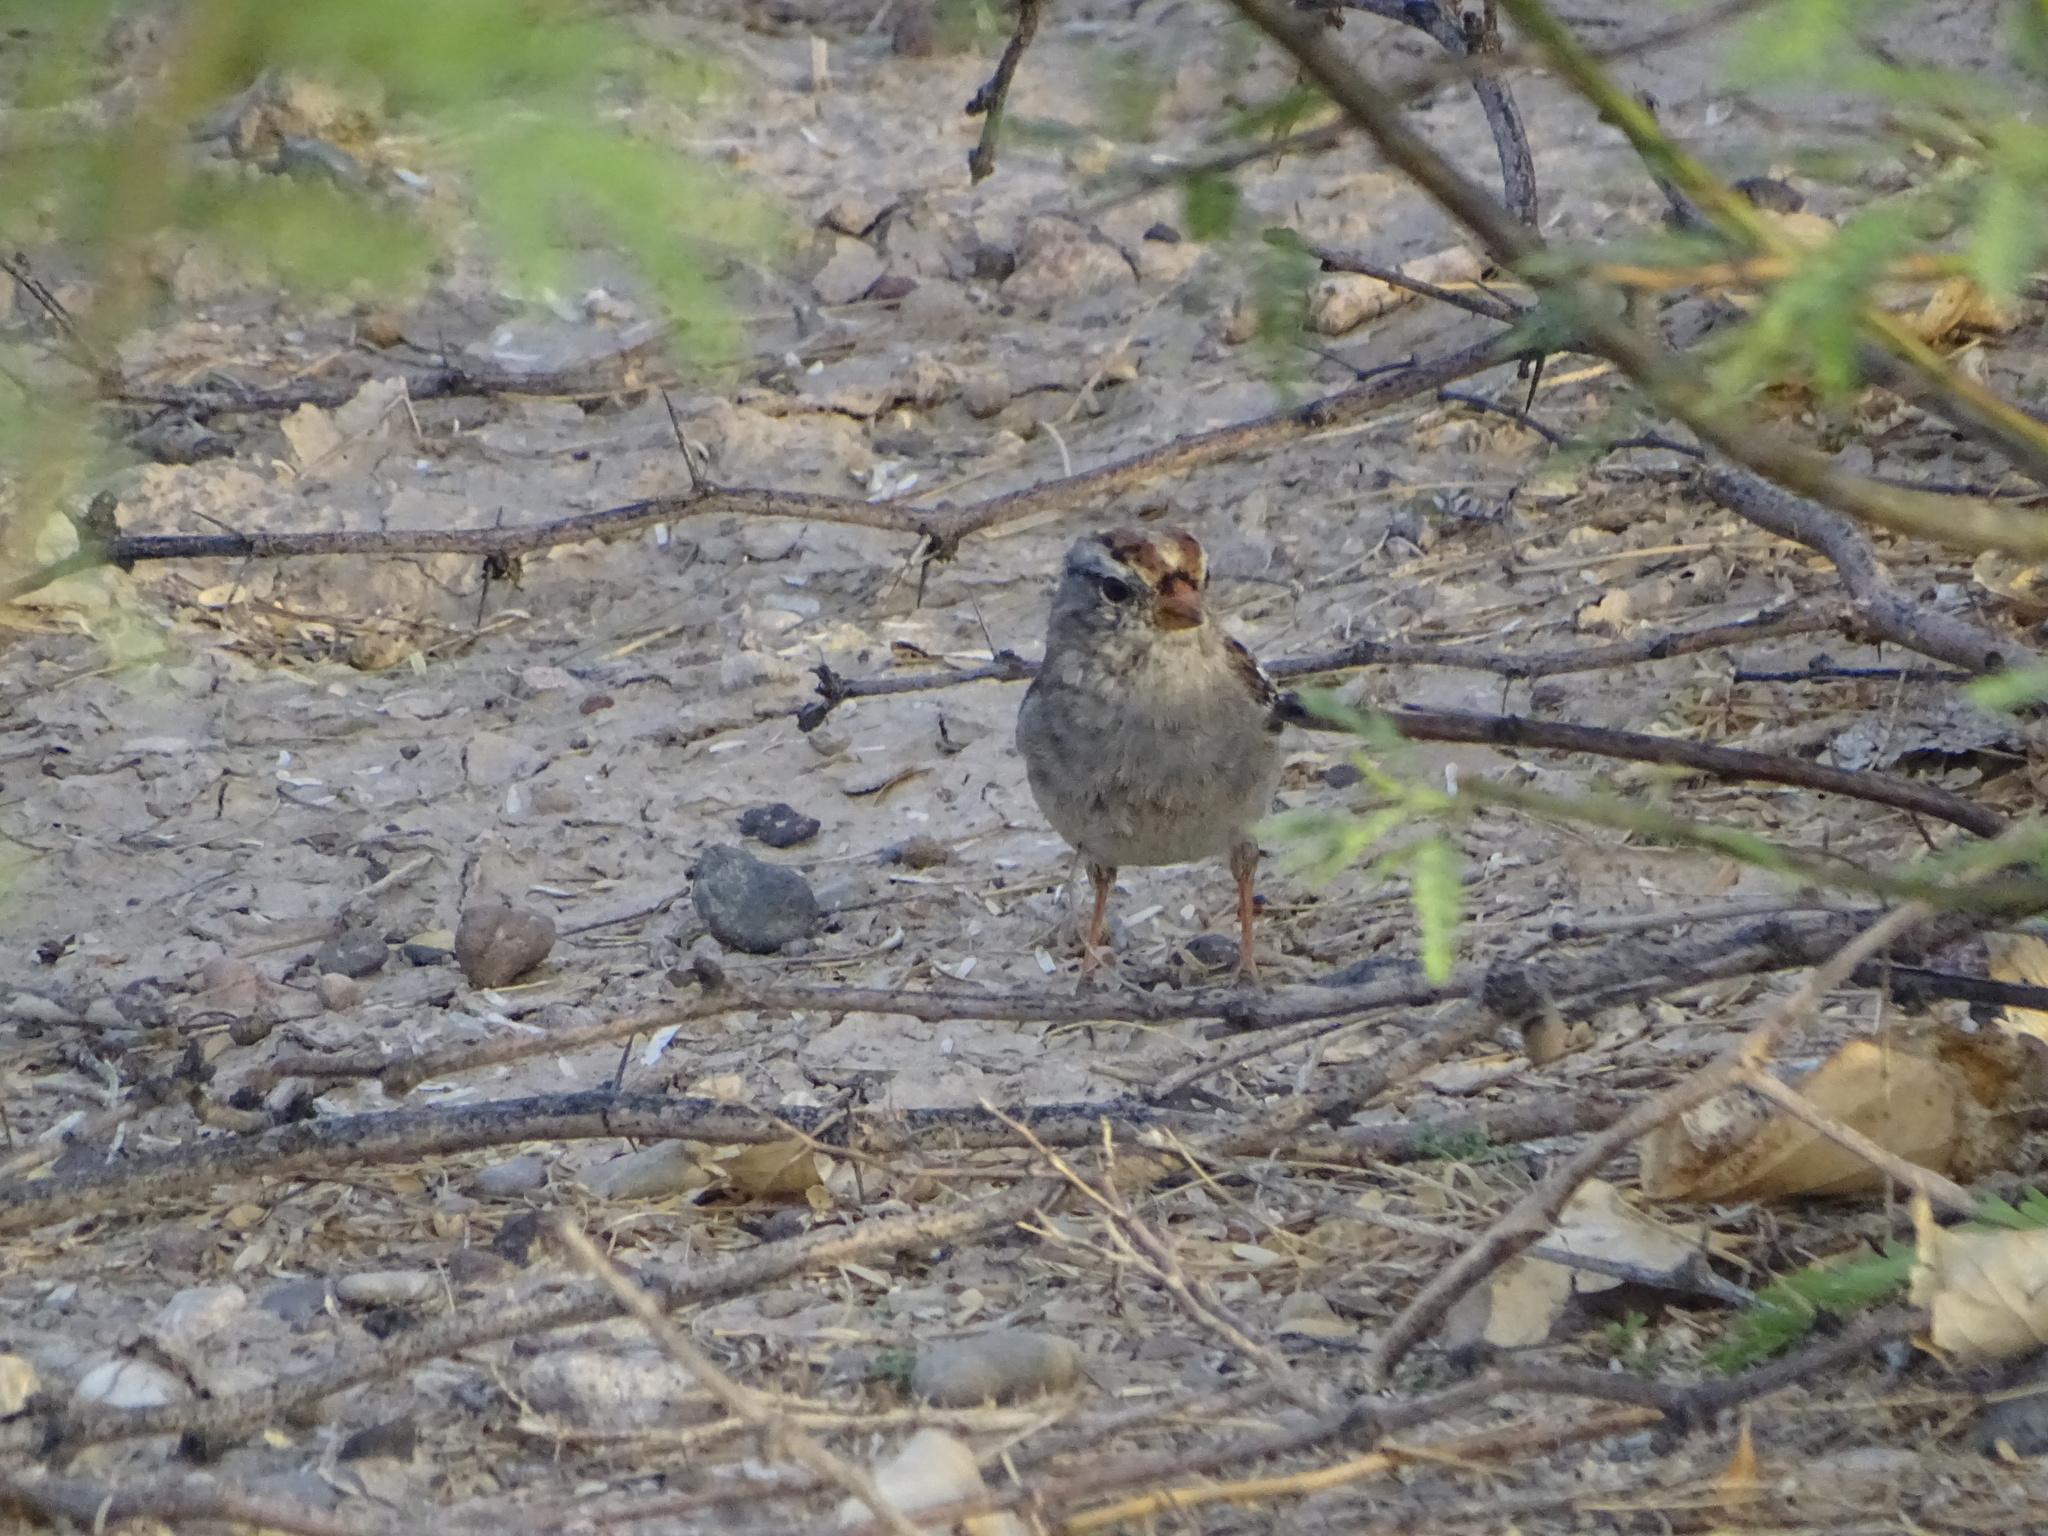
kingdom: Animalia
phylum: Chordata
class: Aves
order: Passeriformes
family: Passerellidae
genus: Zonotrichia
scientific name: Zonotrichia leucophrys
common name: White-crowned sparrow
